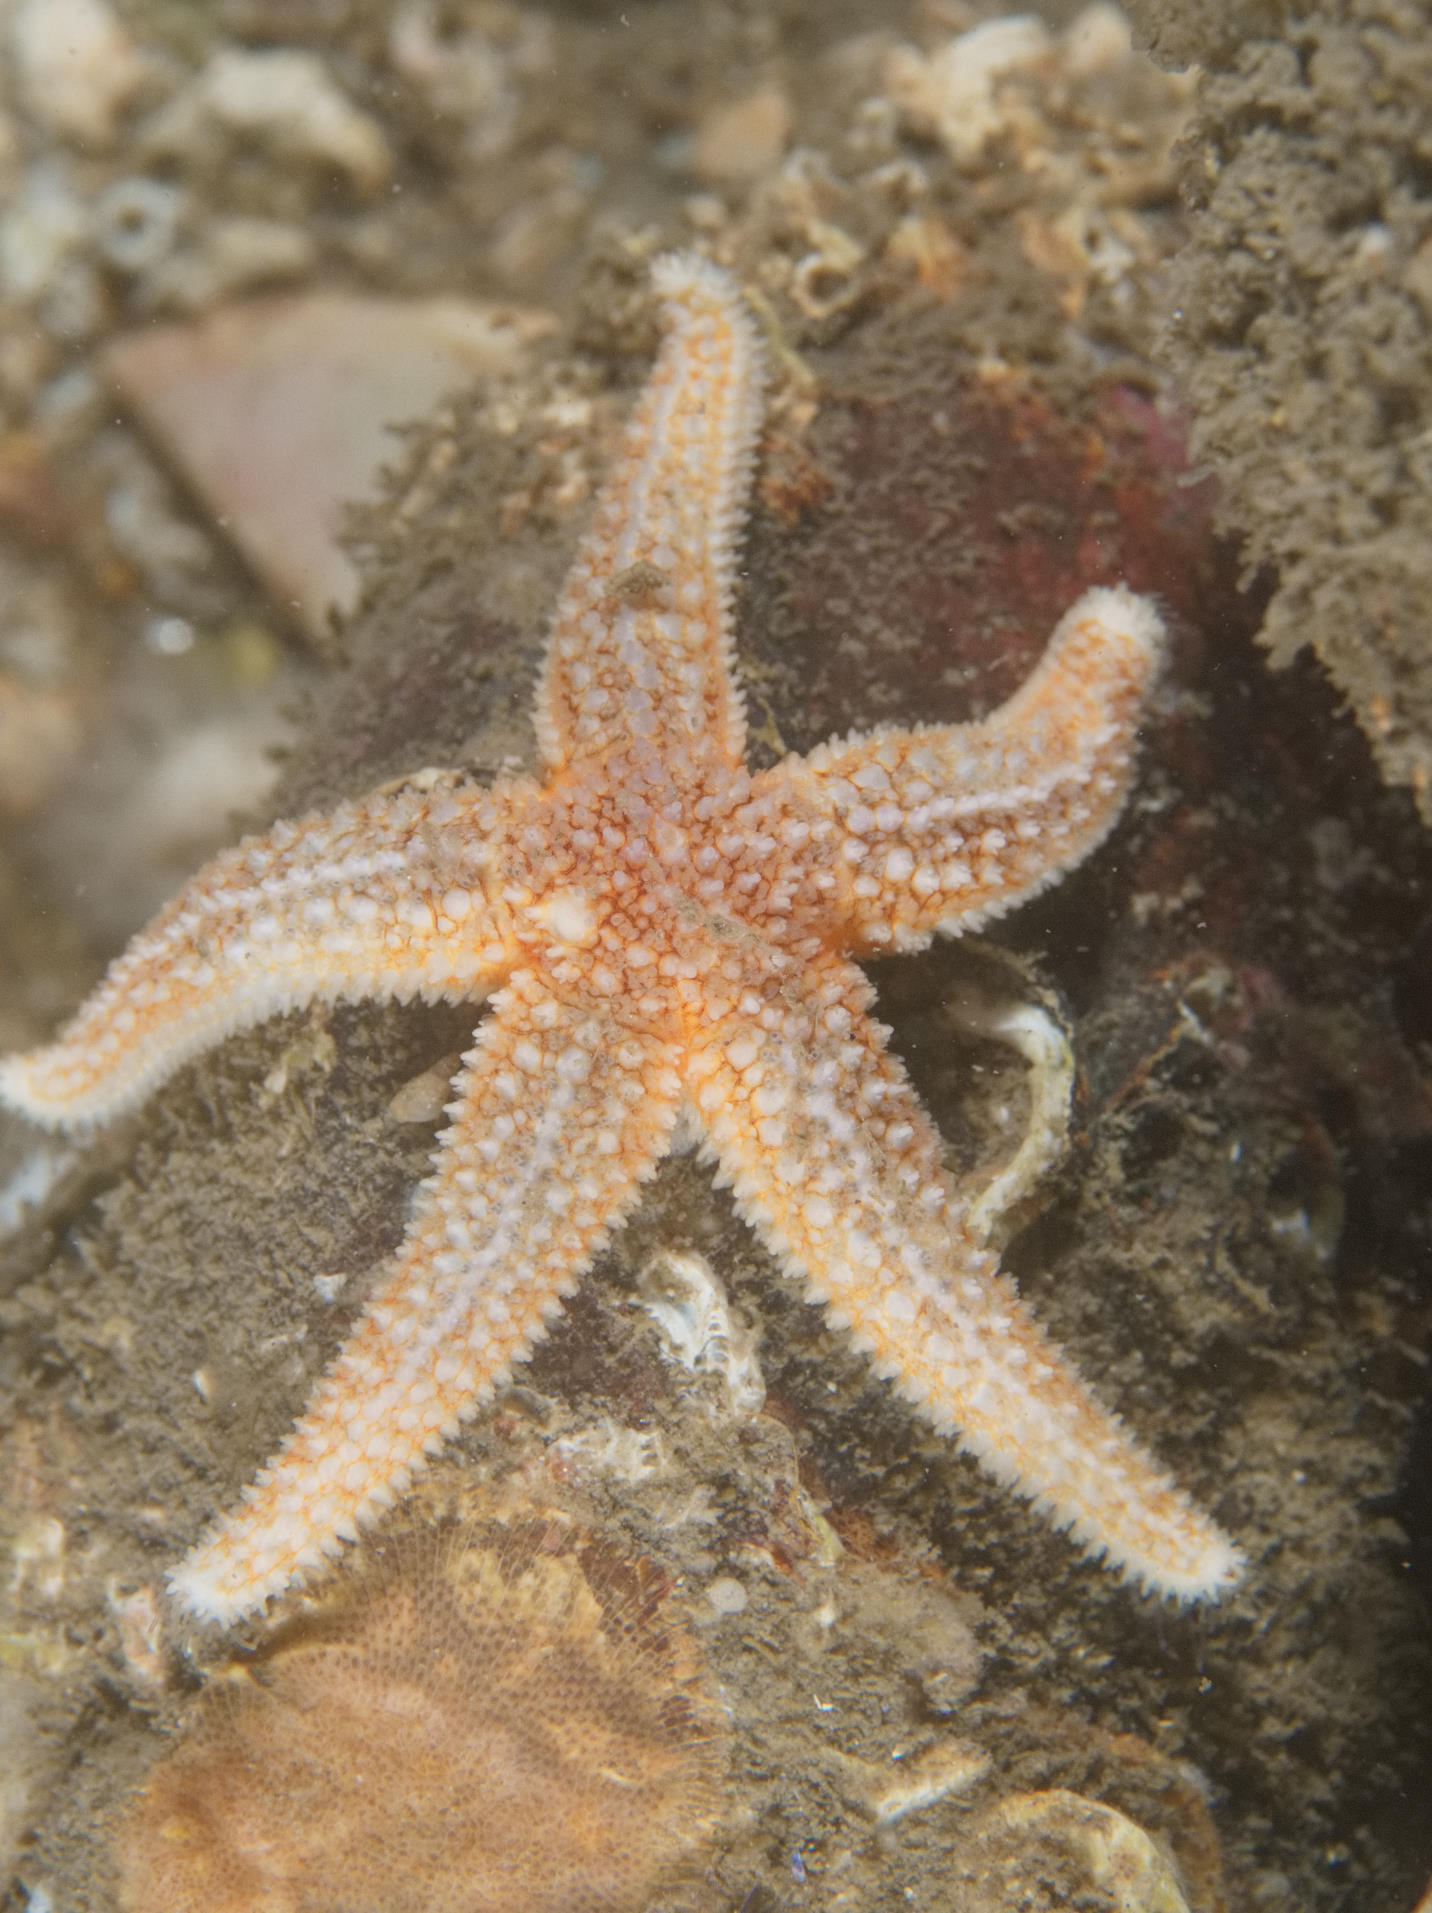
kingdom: Animalia
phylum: Echinodermata
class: Asteroidea
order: Forcipulatida
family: Asteriidae
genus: Asterias
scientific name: Asterias rubens
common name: Common starfish
